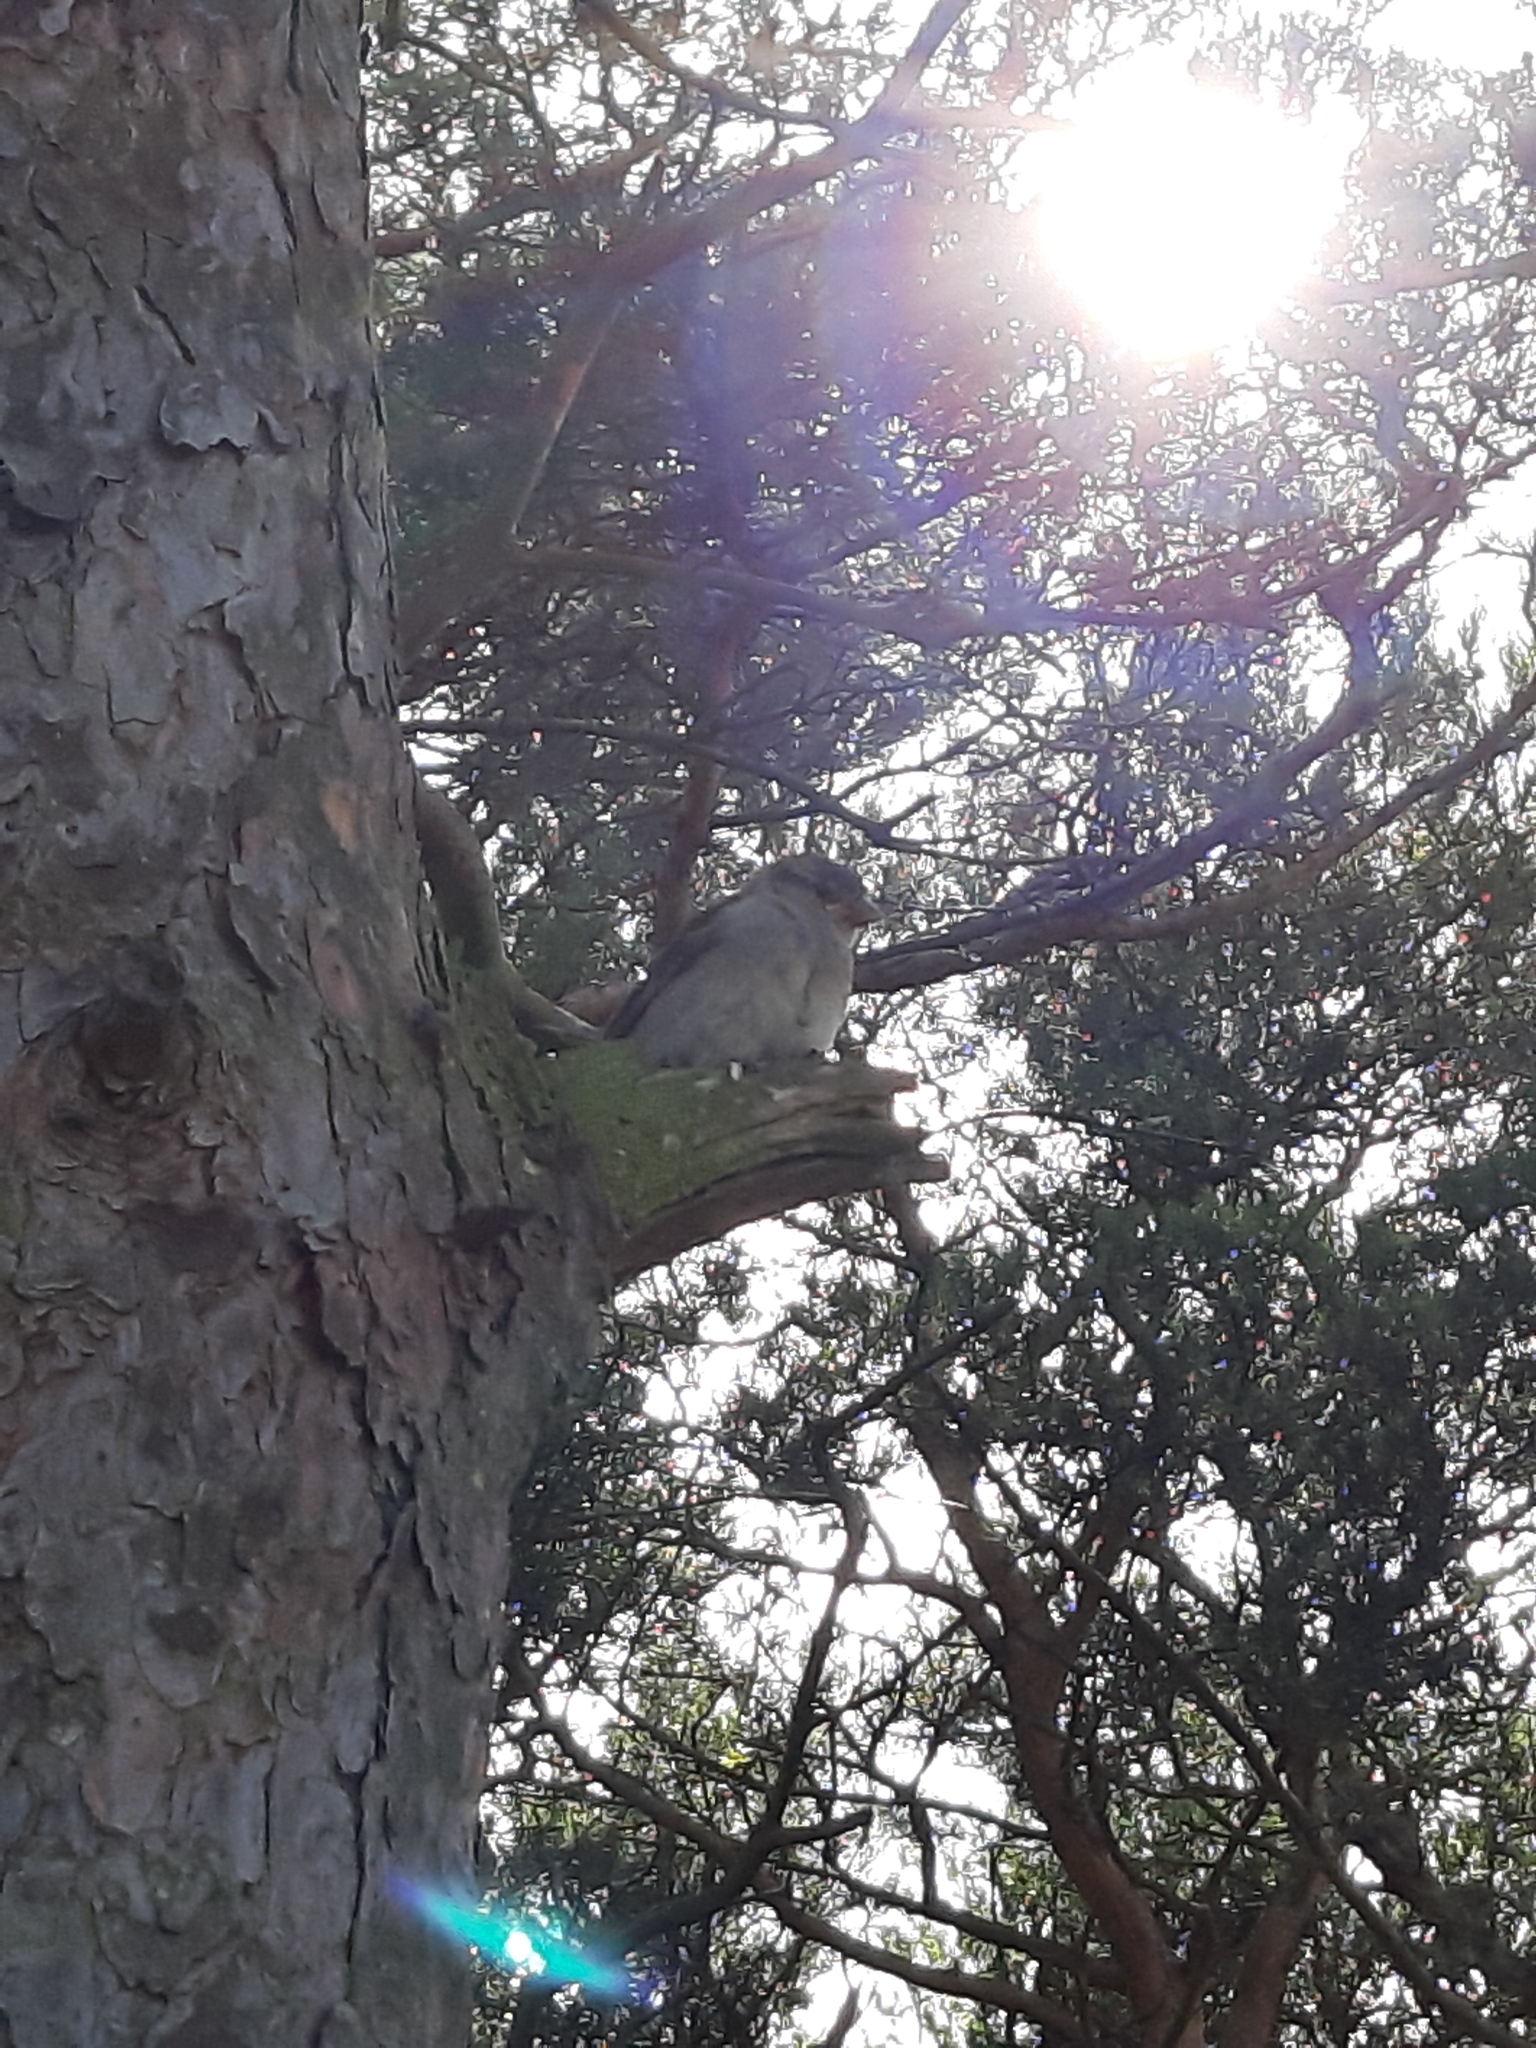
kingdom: Animalia
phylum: Chordata
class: Aves
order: Passeriformes
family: Passeridae
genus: Passer
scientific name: Passer domesticus
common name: House sparrow
